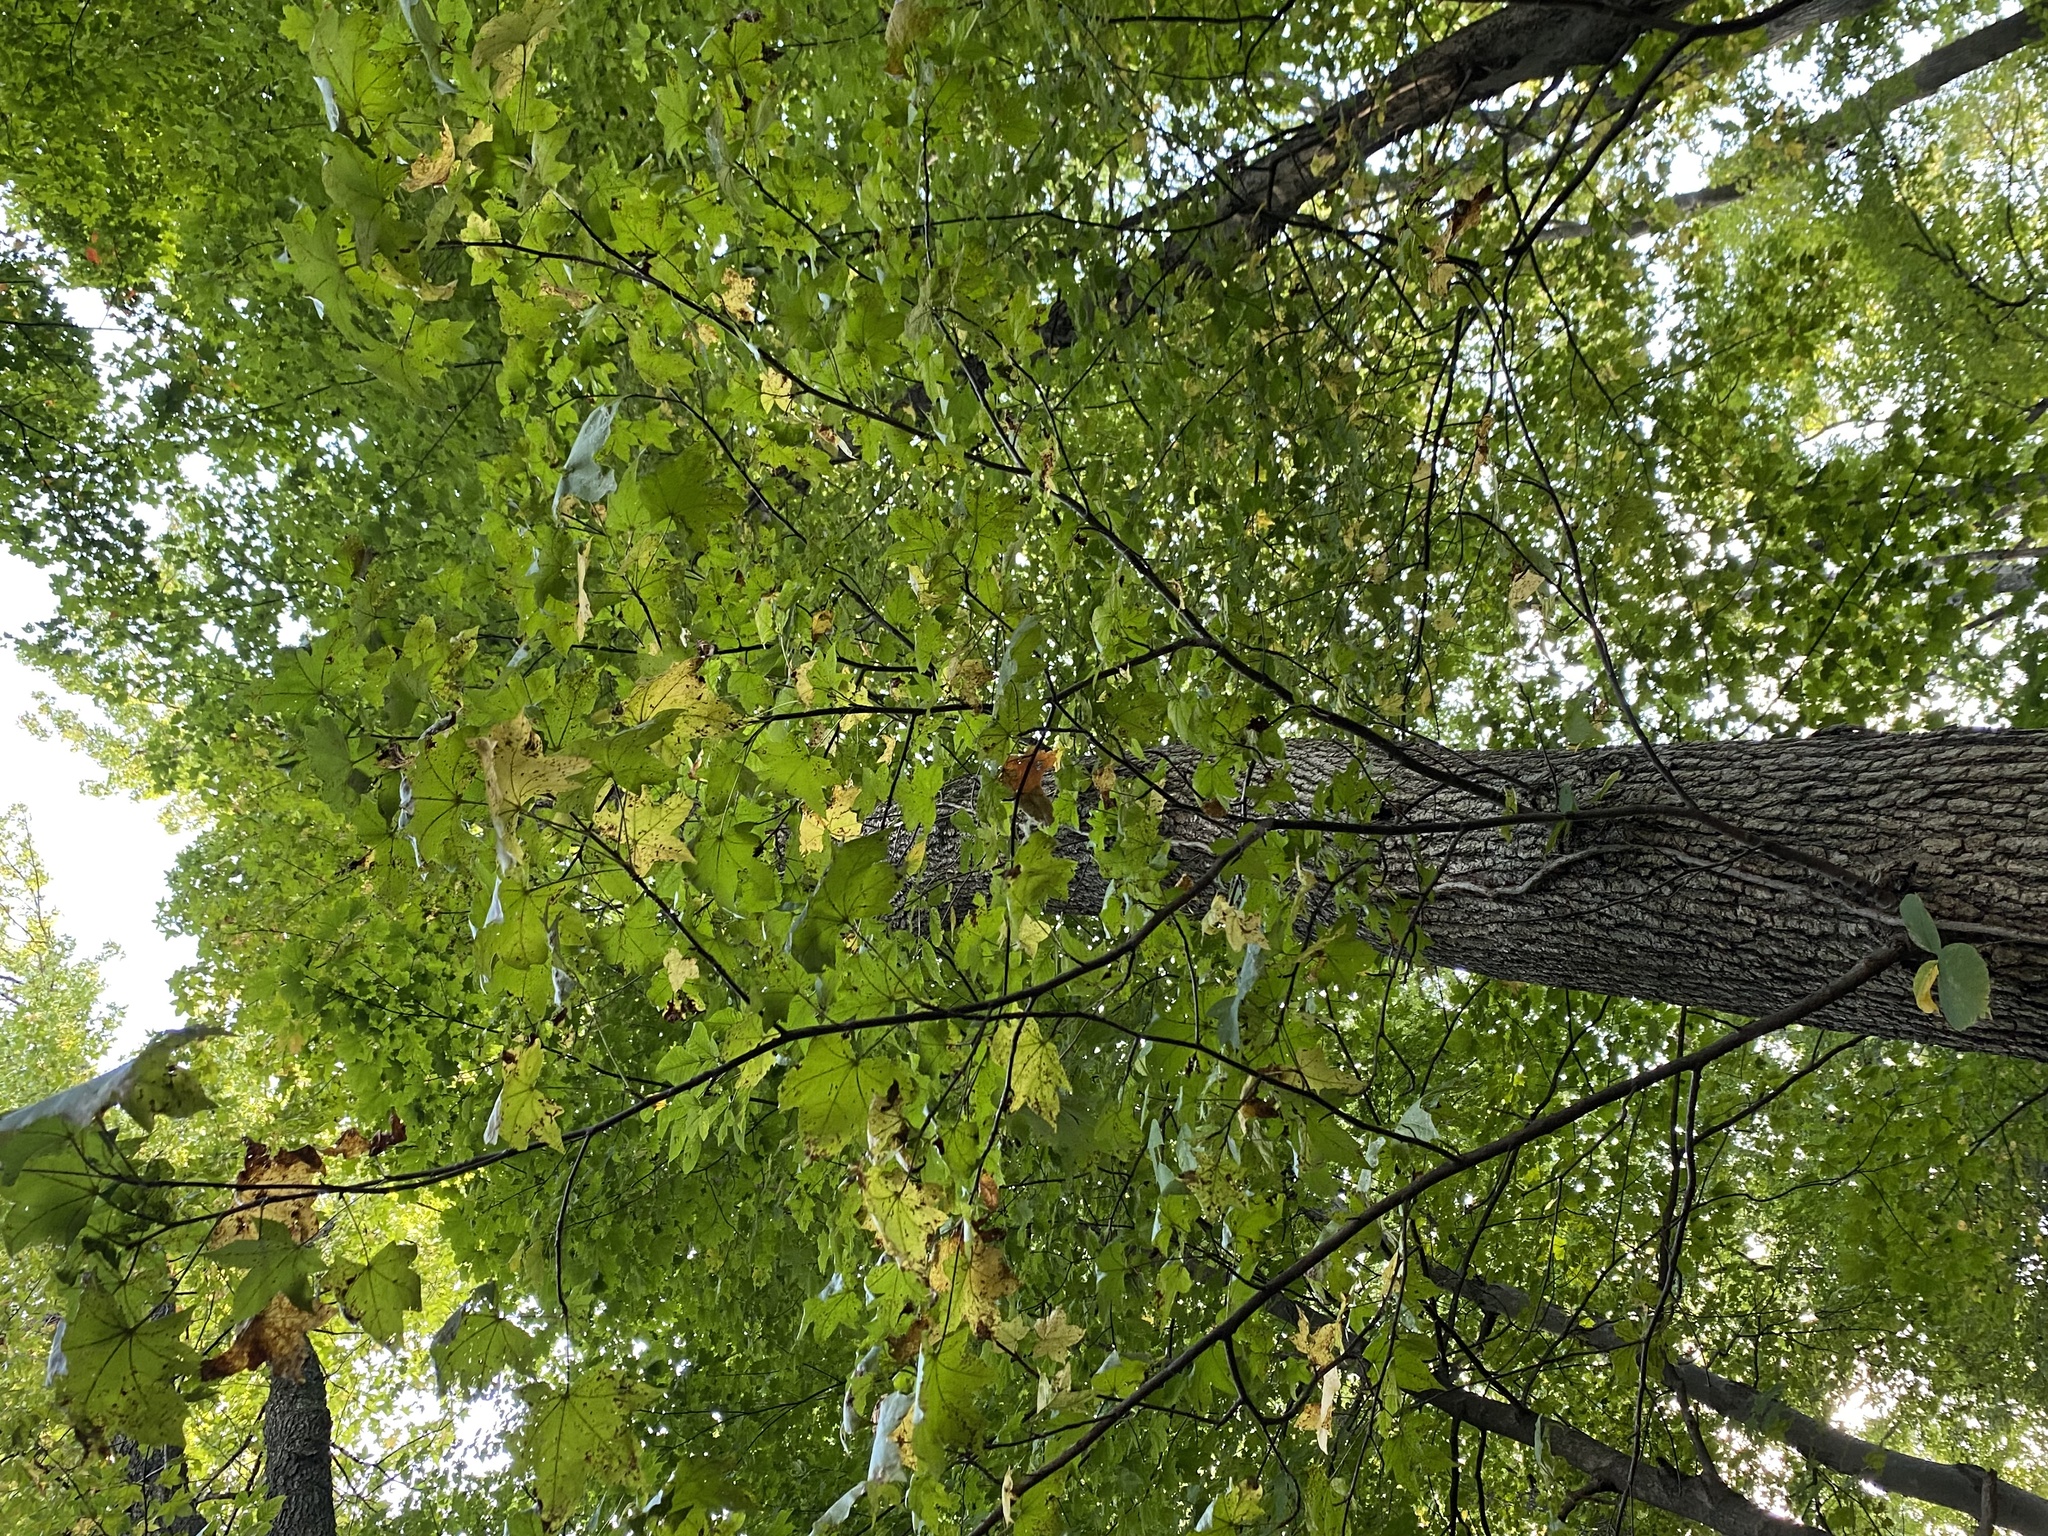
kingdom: Plantae
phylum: Tracheophyta
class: Magnoliopsida
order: Saxifragales
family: Altingiaceae
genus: Liquidambar
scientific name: Liquidambar styraciflua
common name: Sweet gum
